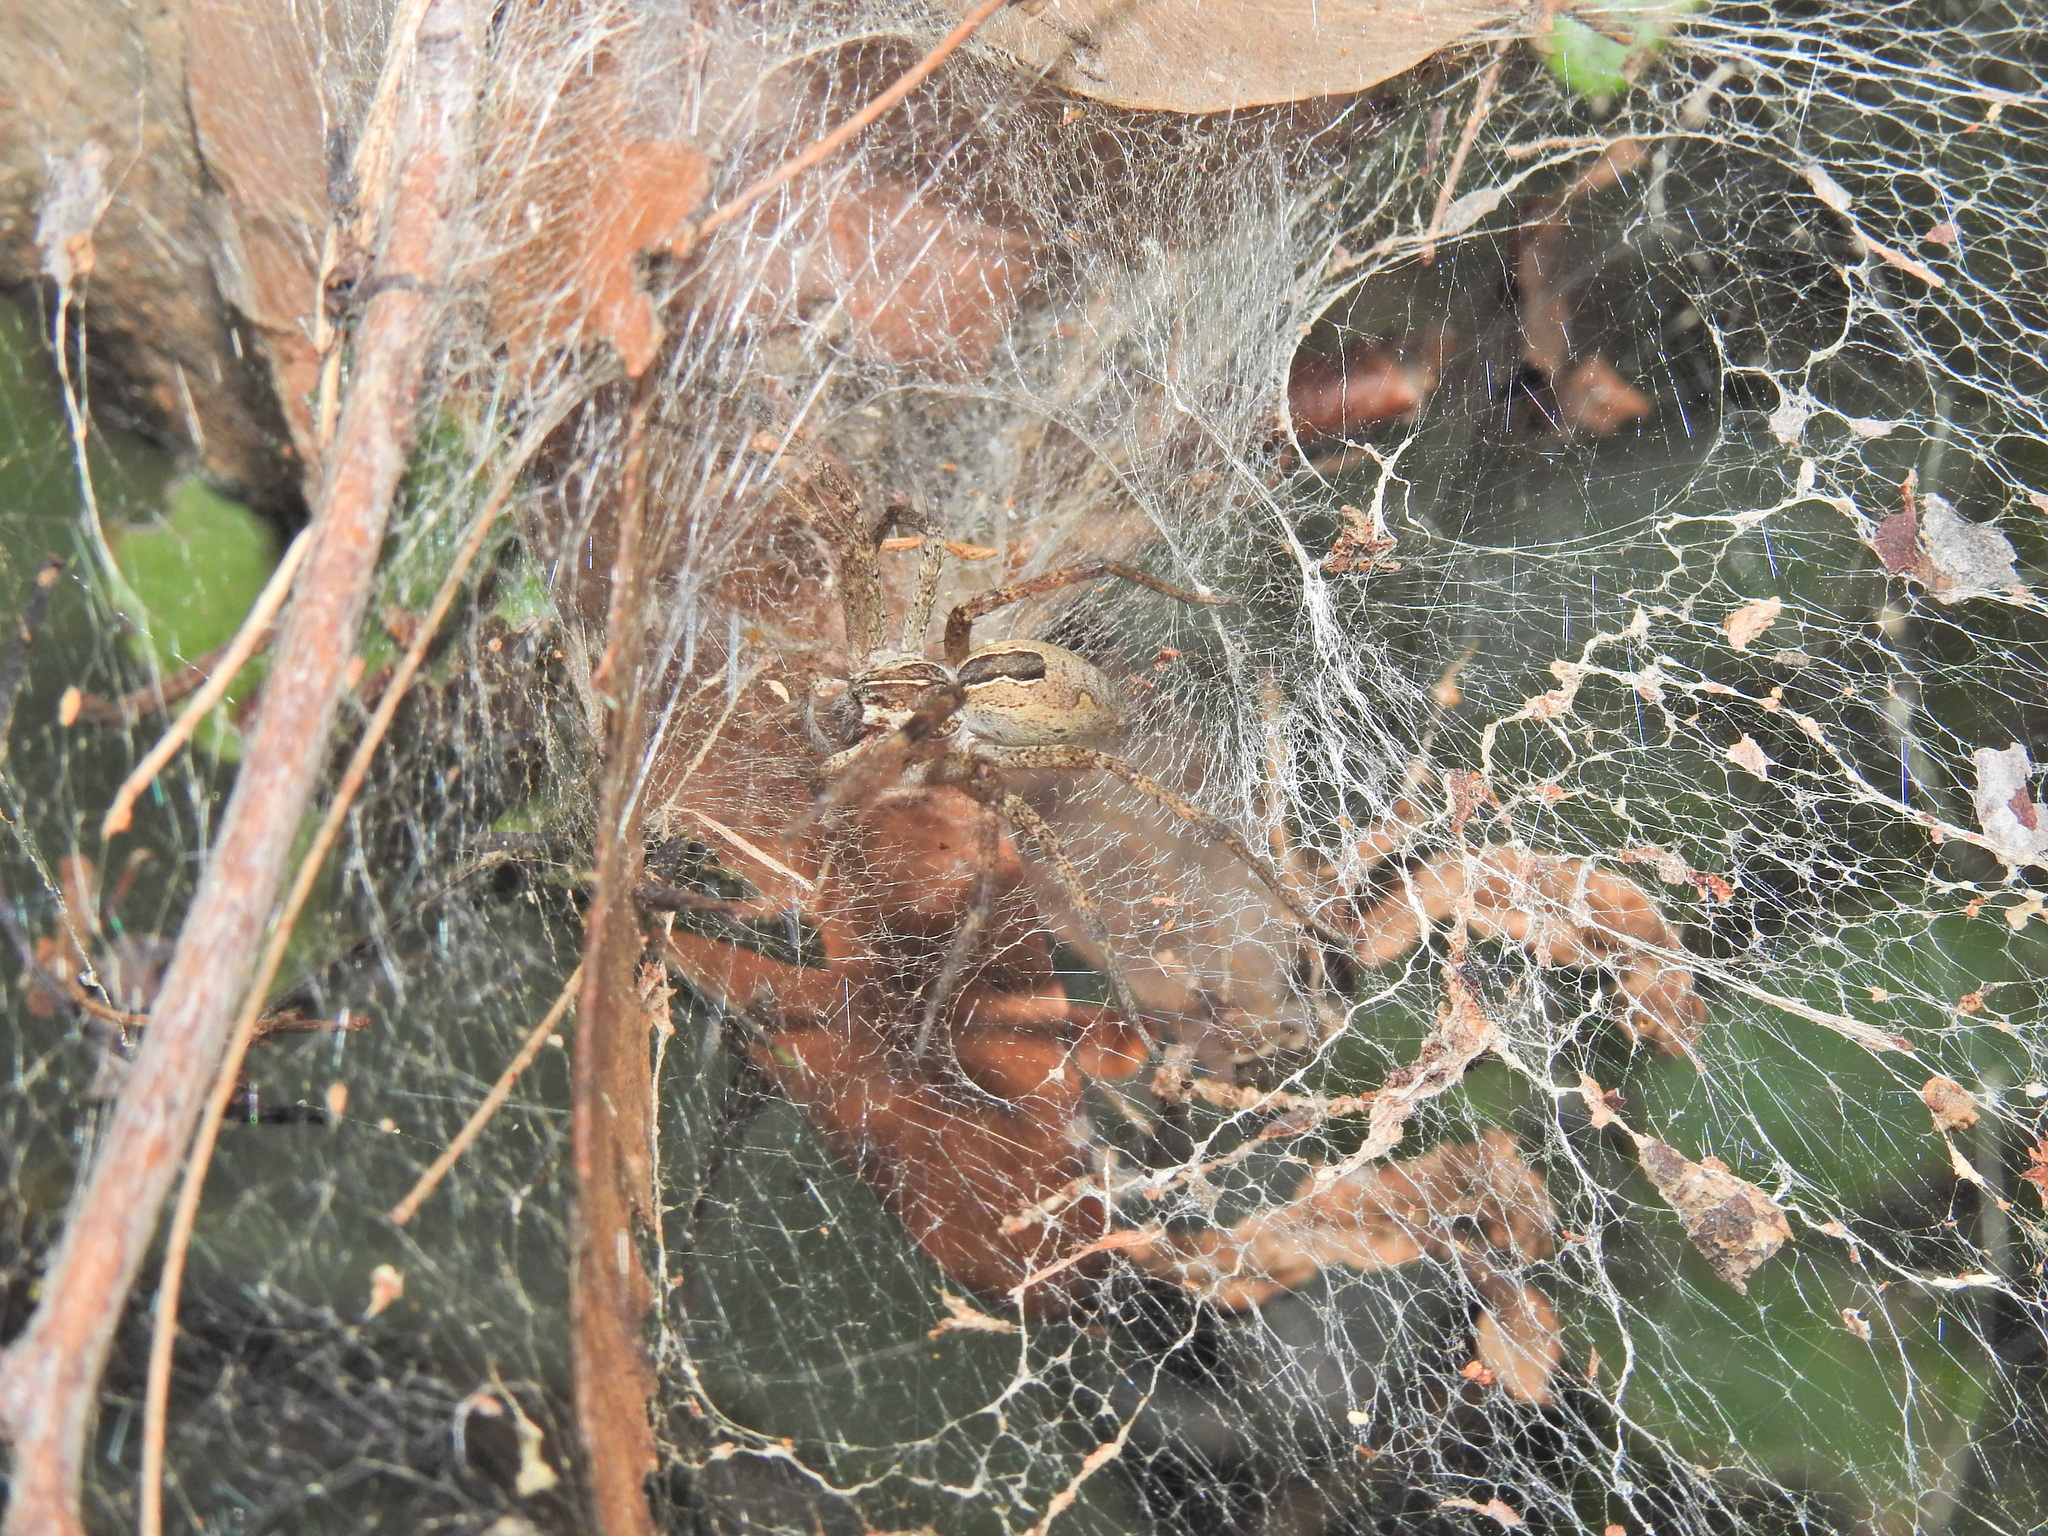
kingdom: Animalia
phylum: Arthropoda
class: Arachnida
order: Araneae
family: Pisauridae
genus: Dendrolycosa
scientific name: Dendrolycosa icadia
